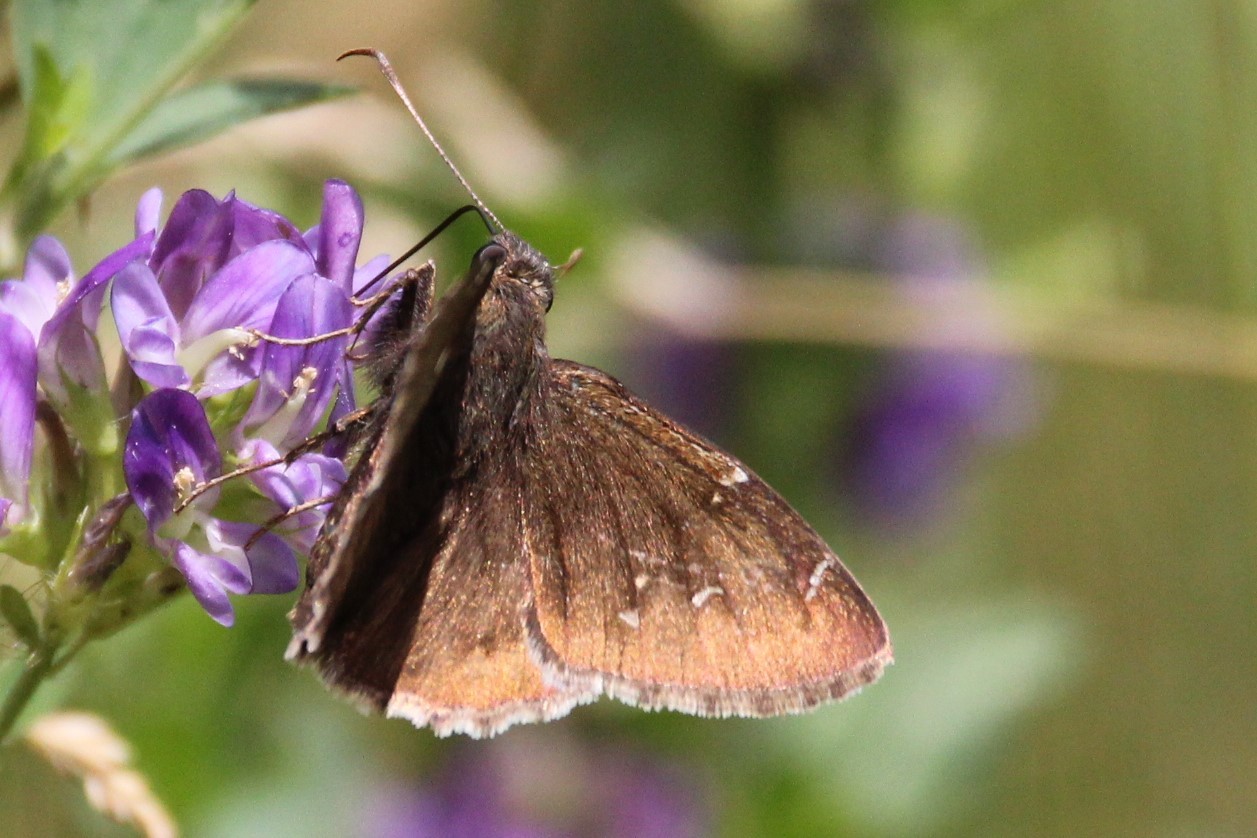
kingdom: Animalia
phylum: Arthropoda
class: Insecta
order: Lepidoptera
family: Hesperiidae
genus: Thorybes
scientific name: Thorybes pylades
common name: Northern cloudywing
